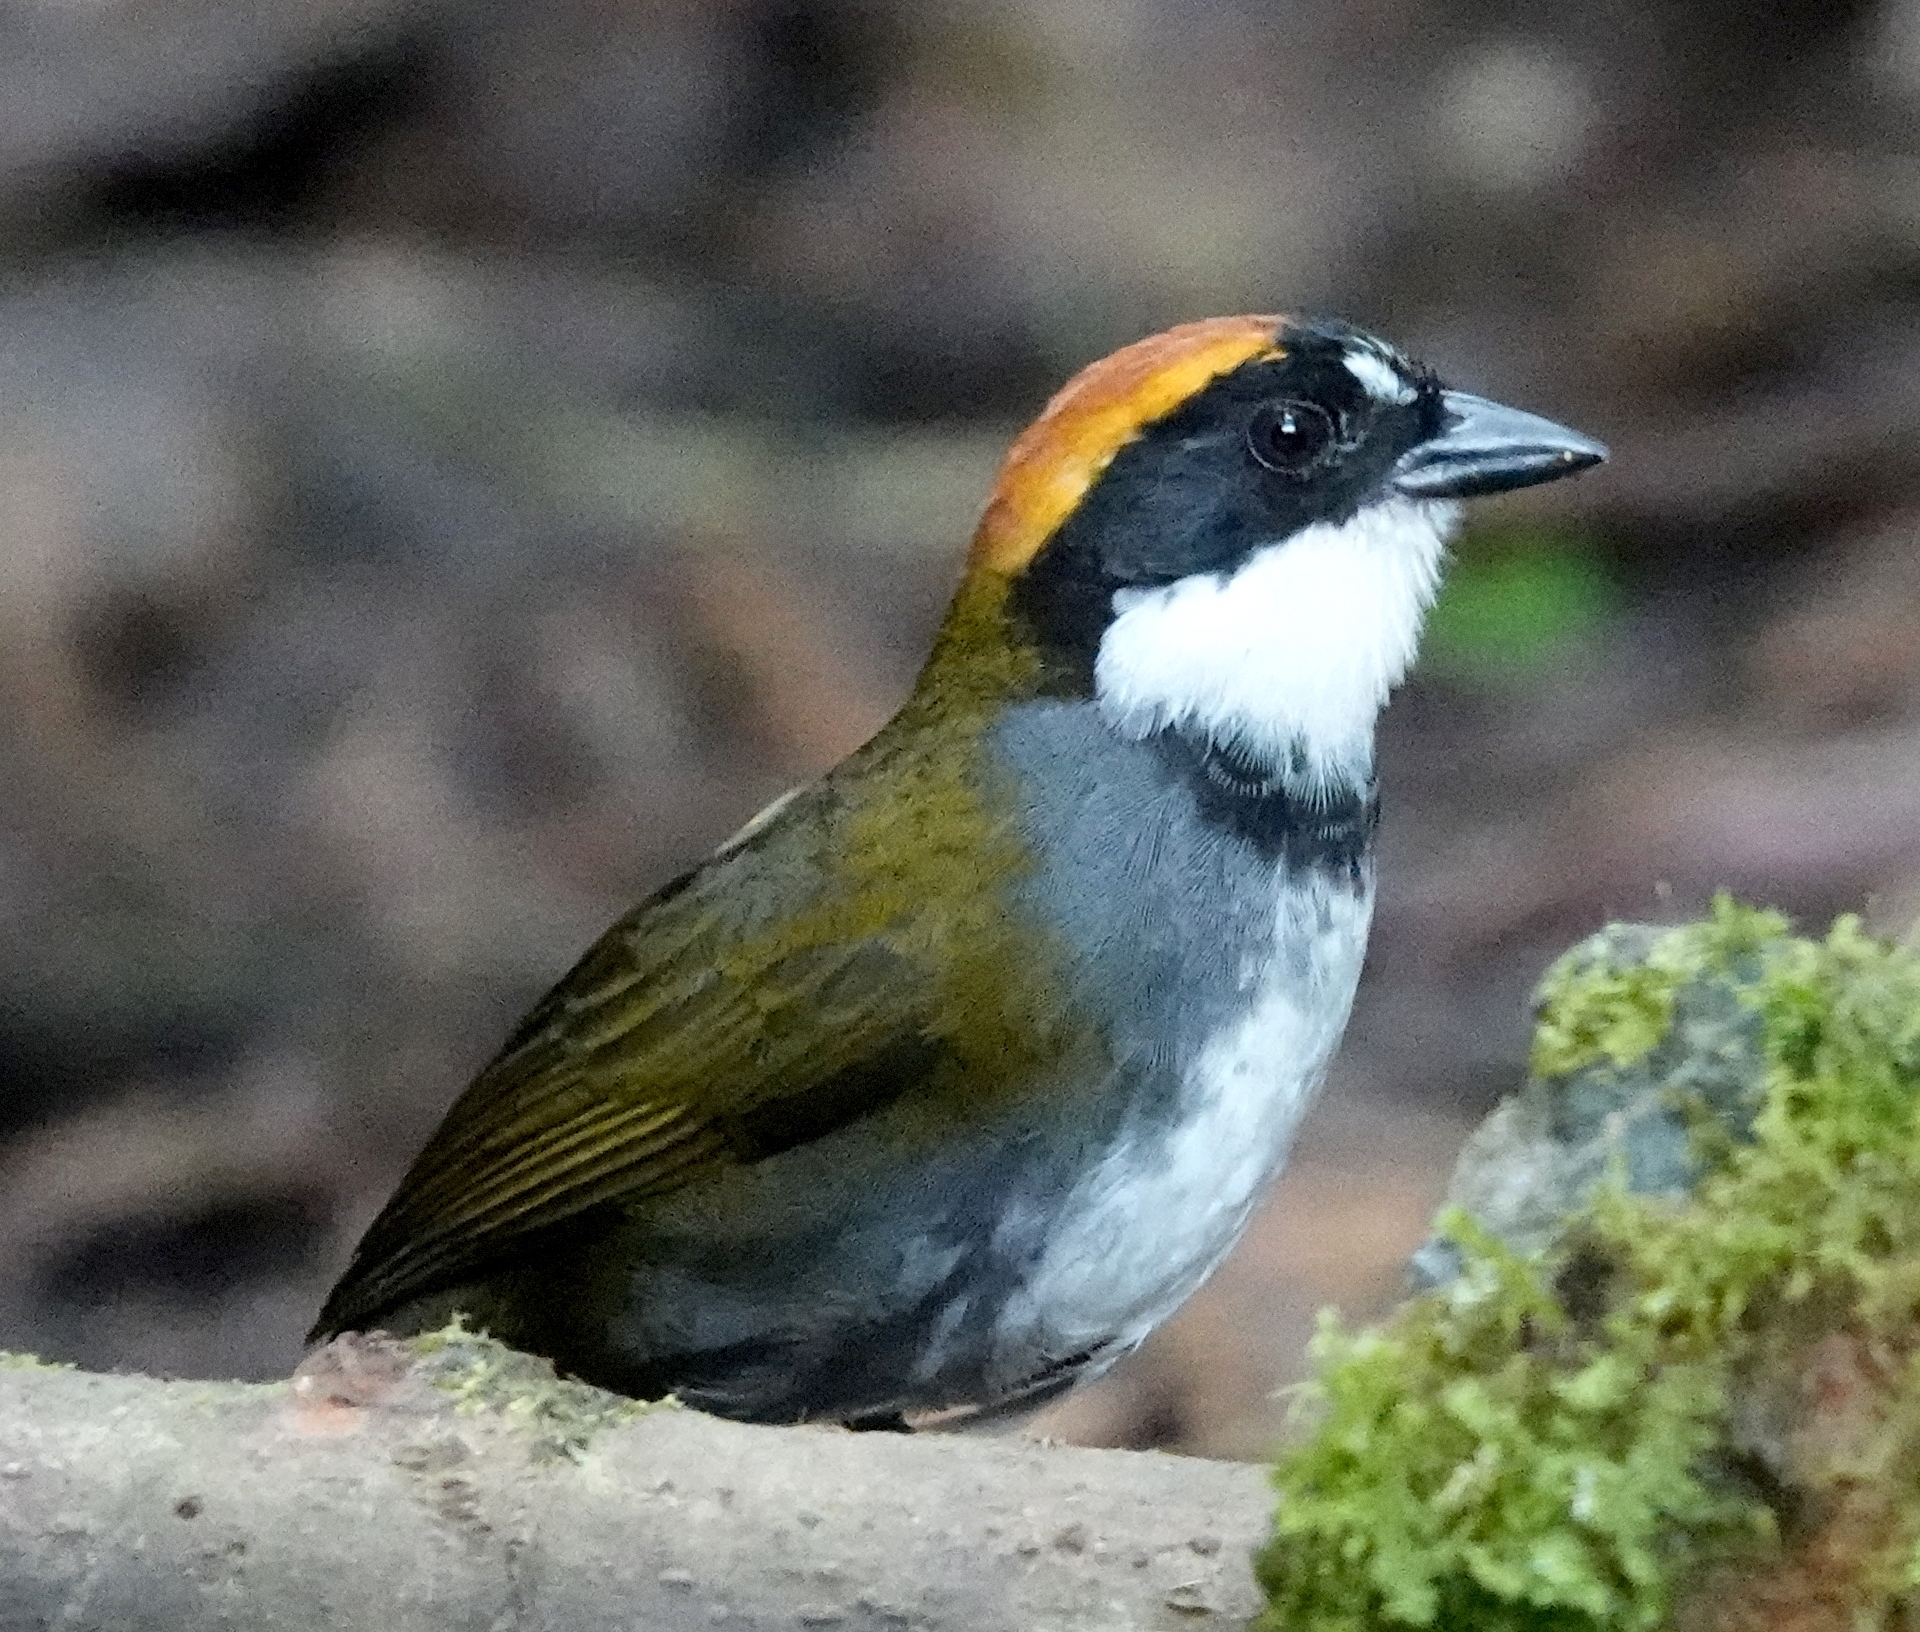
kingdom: Animalia
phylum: Chordata
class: Aves
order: Passeriformes
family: Passerellidae
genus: Arremon
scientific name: Arremon brunneinucha
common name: Chestnut-capped brushfinch
